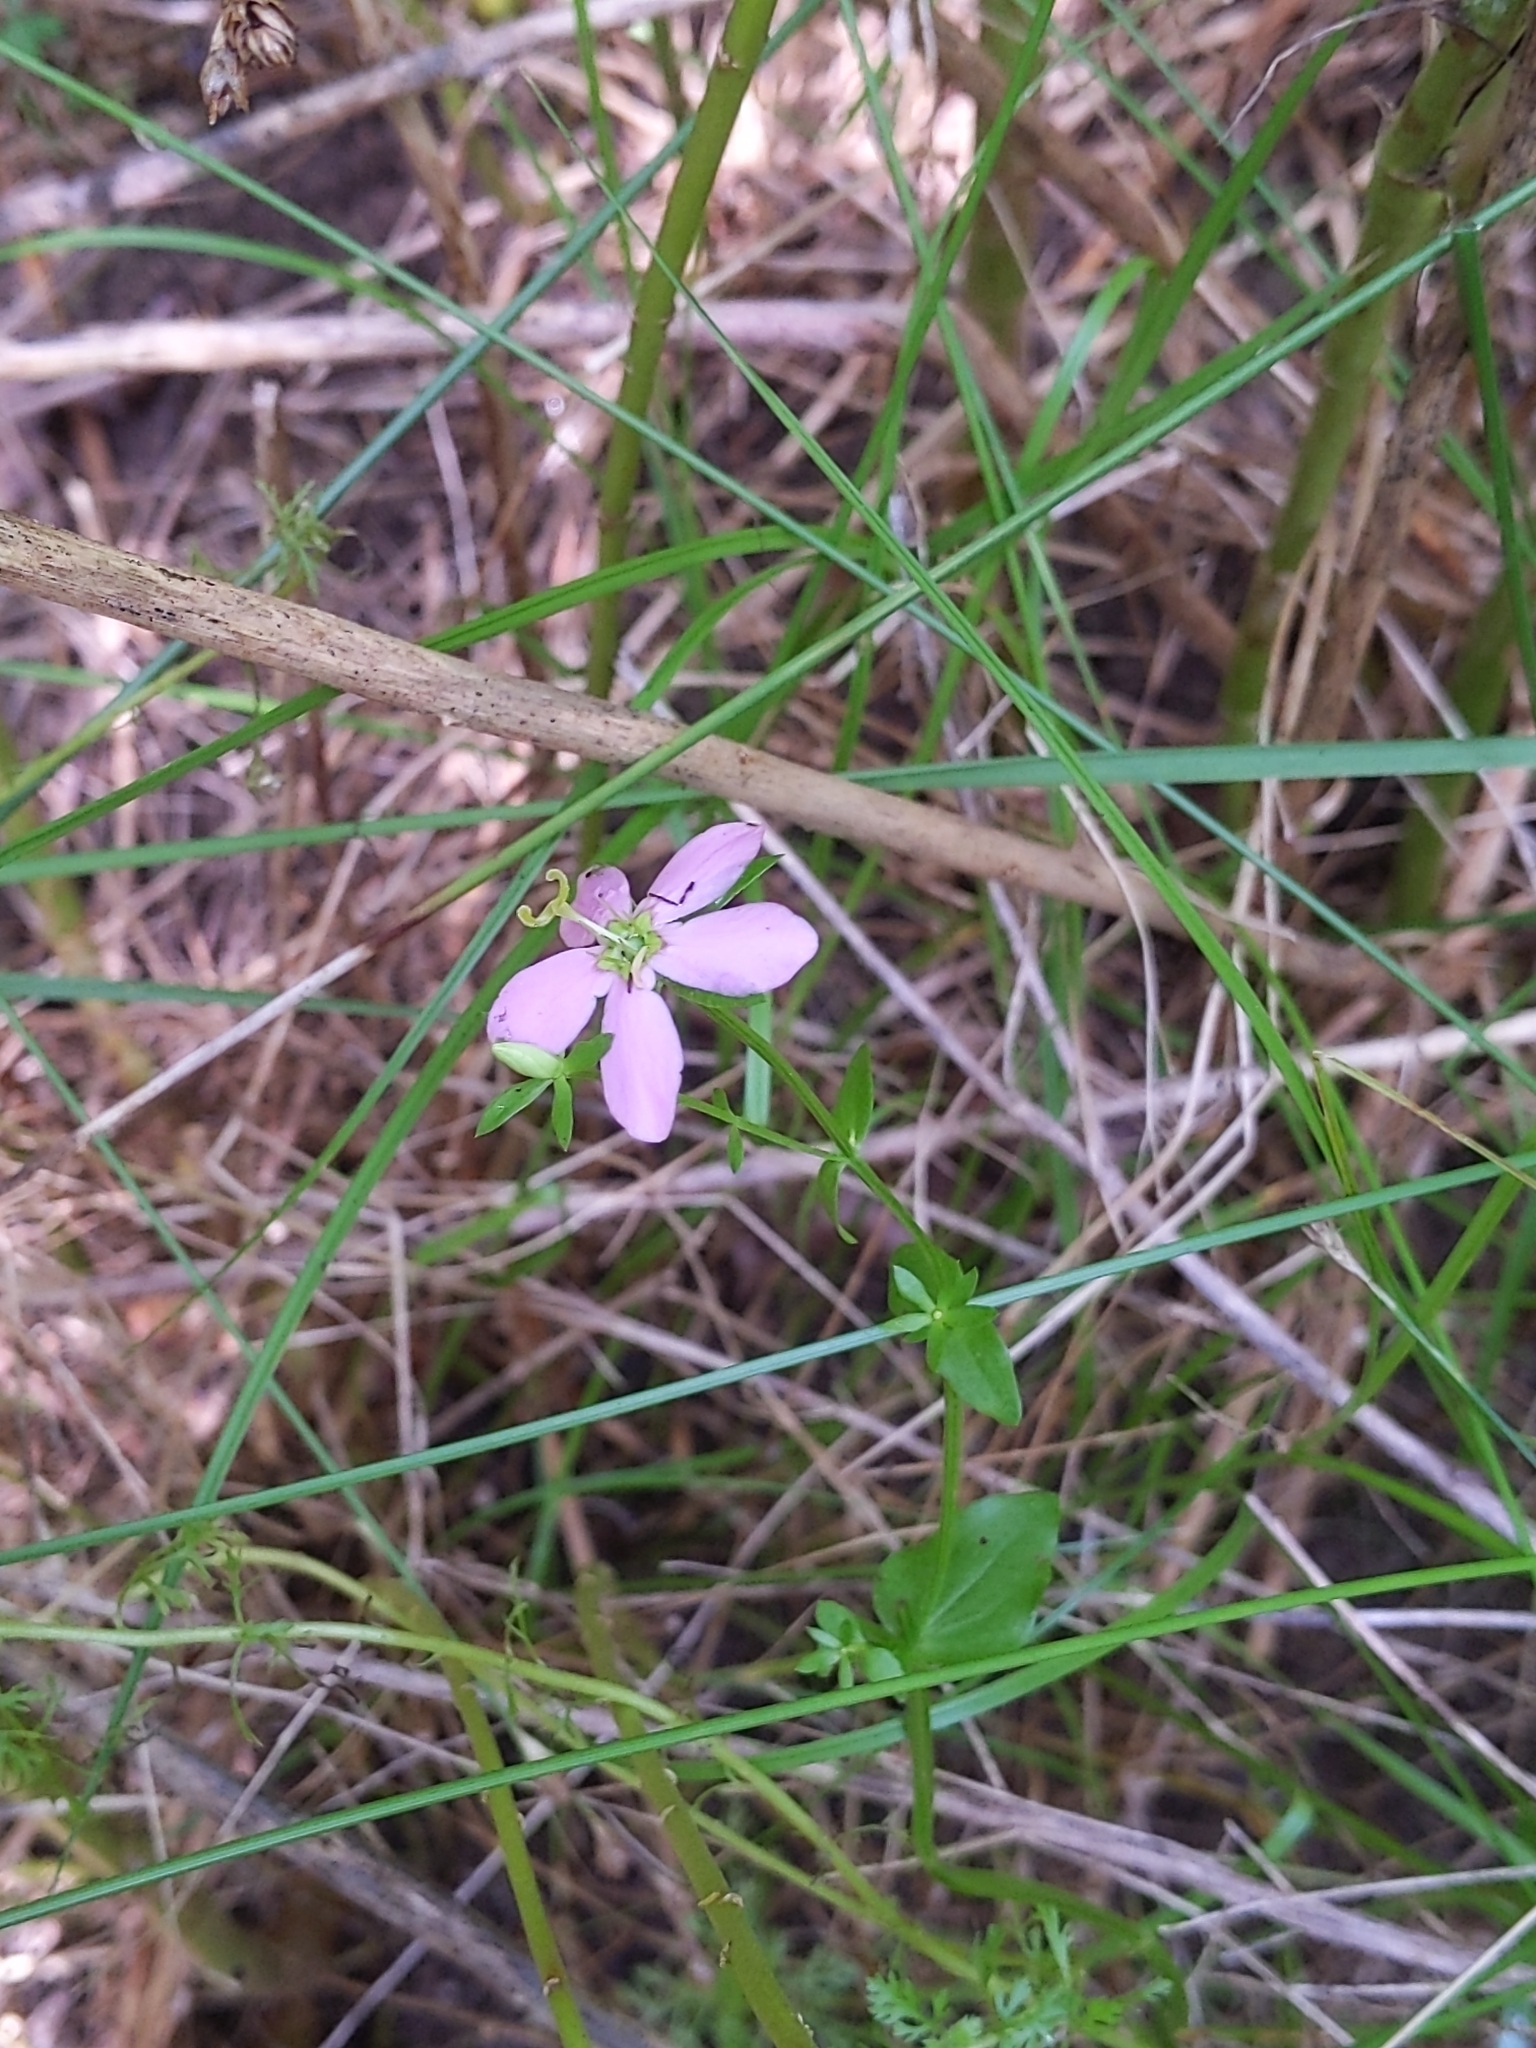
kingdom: Plantae
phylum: Tracheophyta
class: Magnoliopsida
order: Gentianales
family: Gentianaceae
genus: Sabatia
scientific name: Sabatia angularis
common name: Rose-pink
